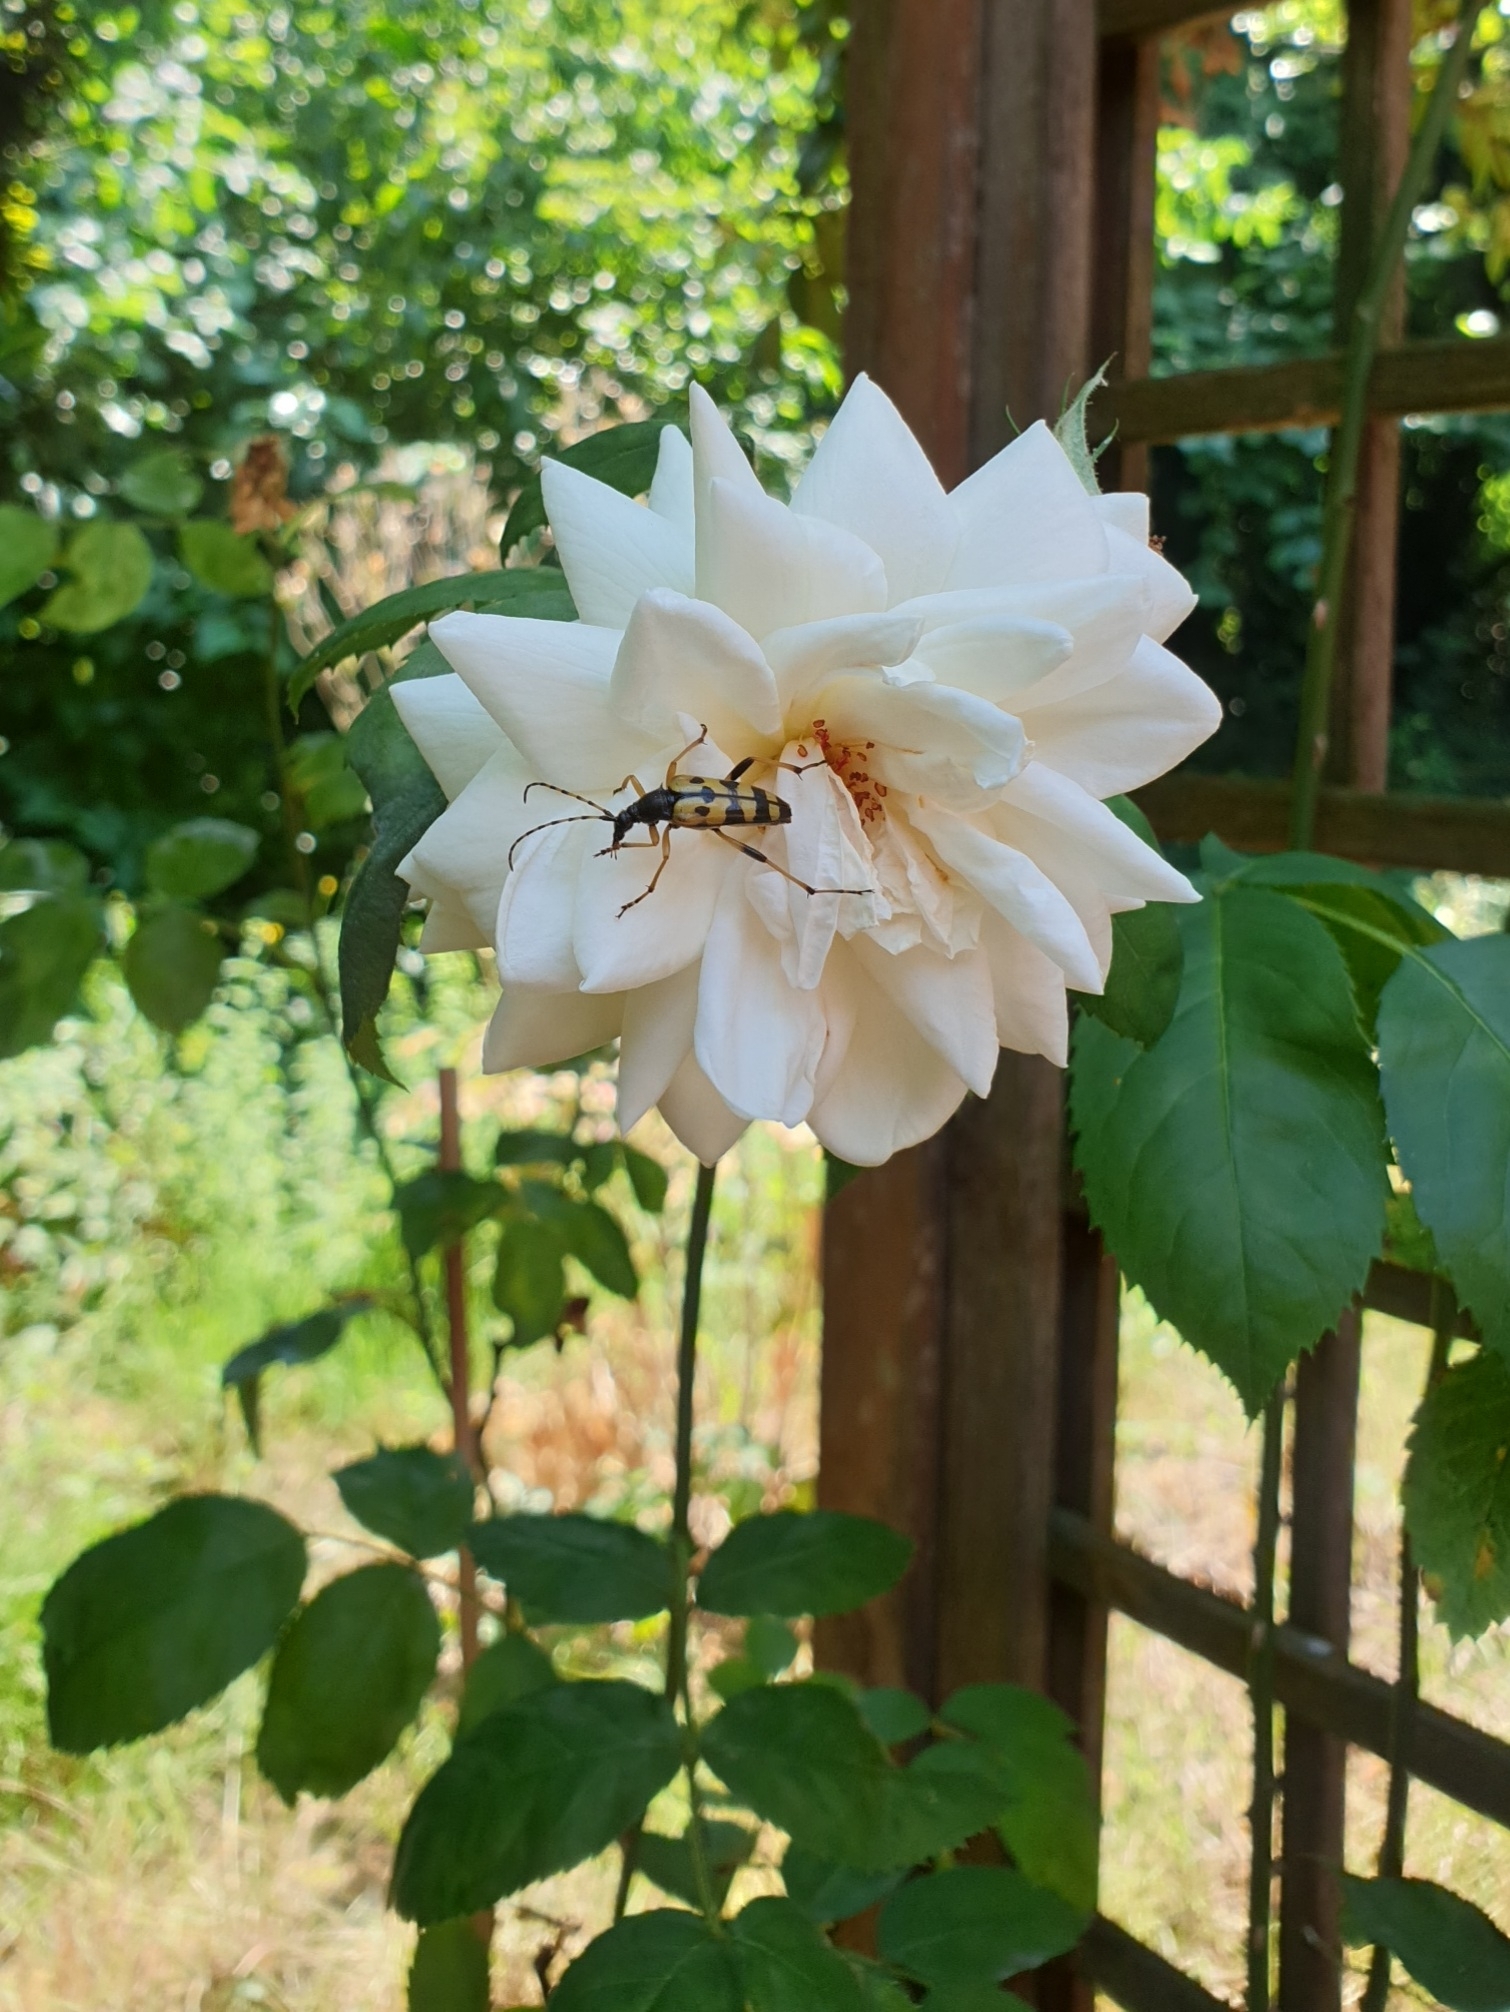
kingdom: Animalia
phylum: Arthropoda
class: Insecta
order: Coleoptera
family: Cerambycidae
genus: Rutpela
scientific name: Rutpela maculata
